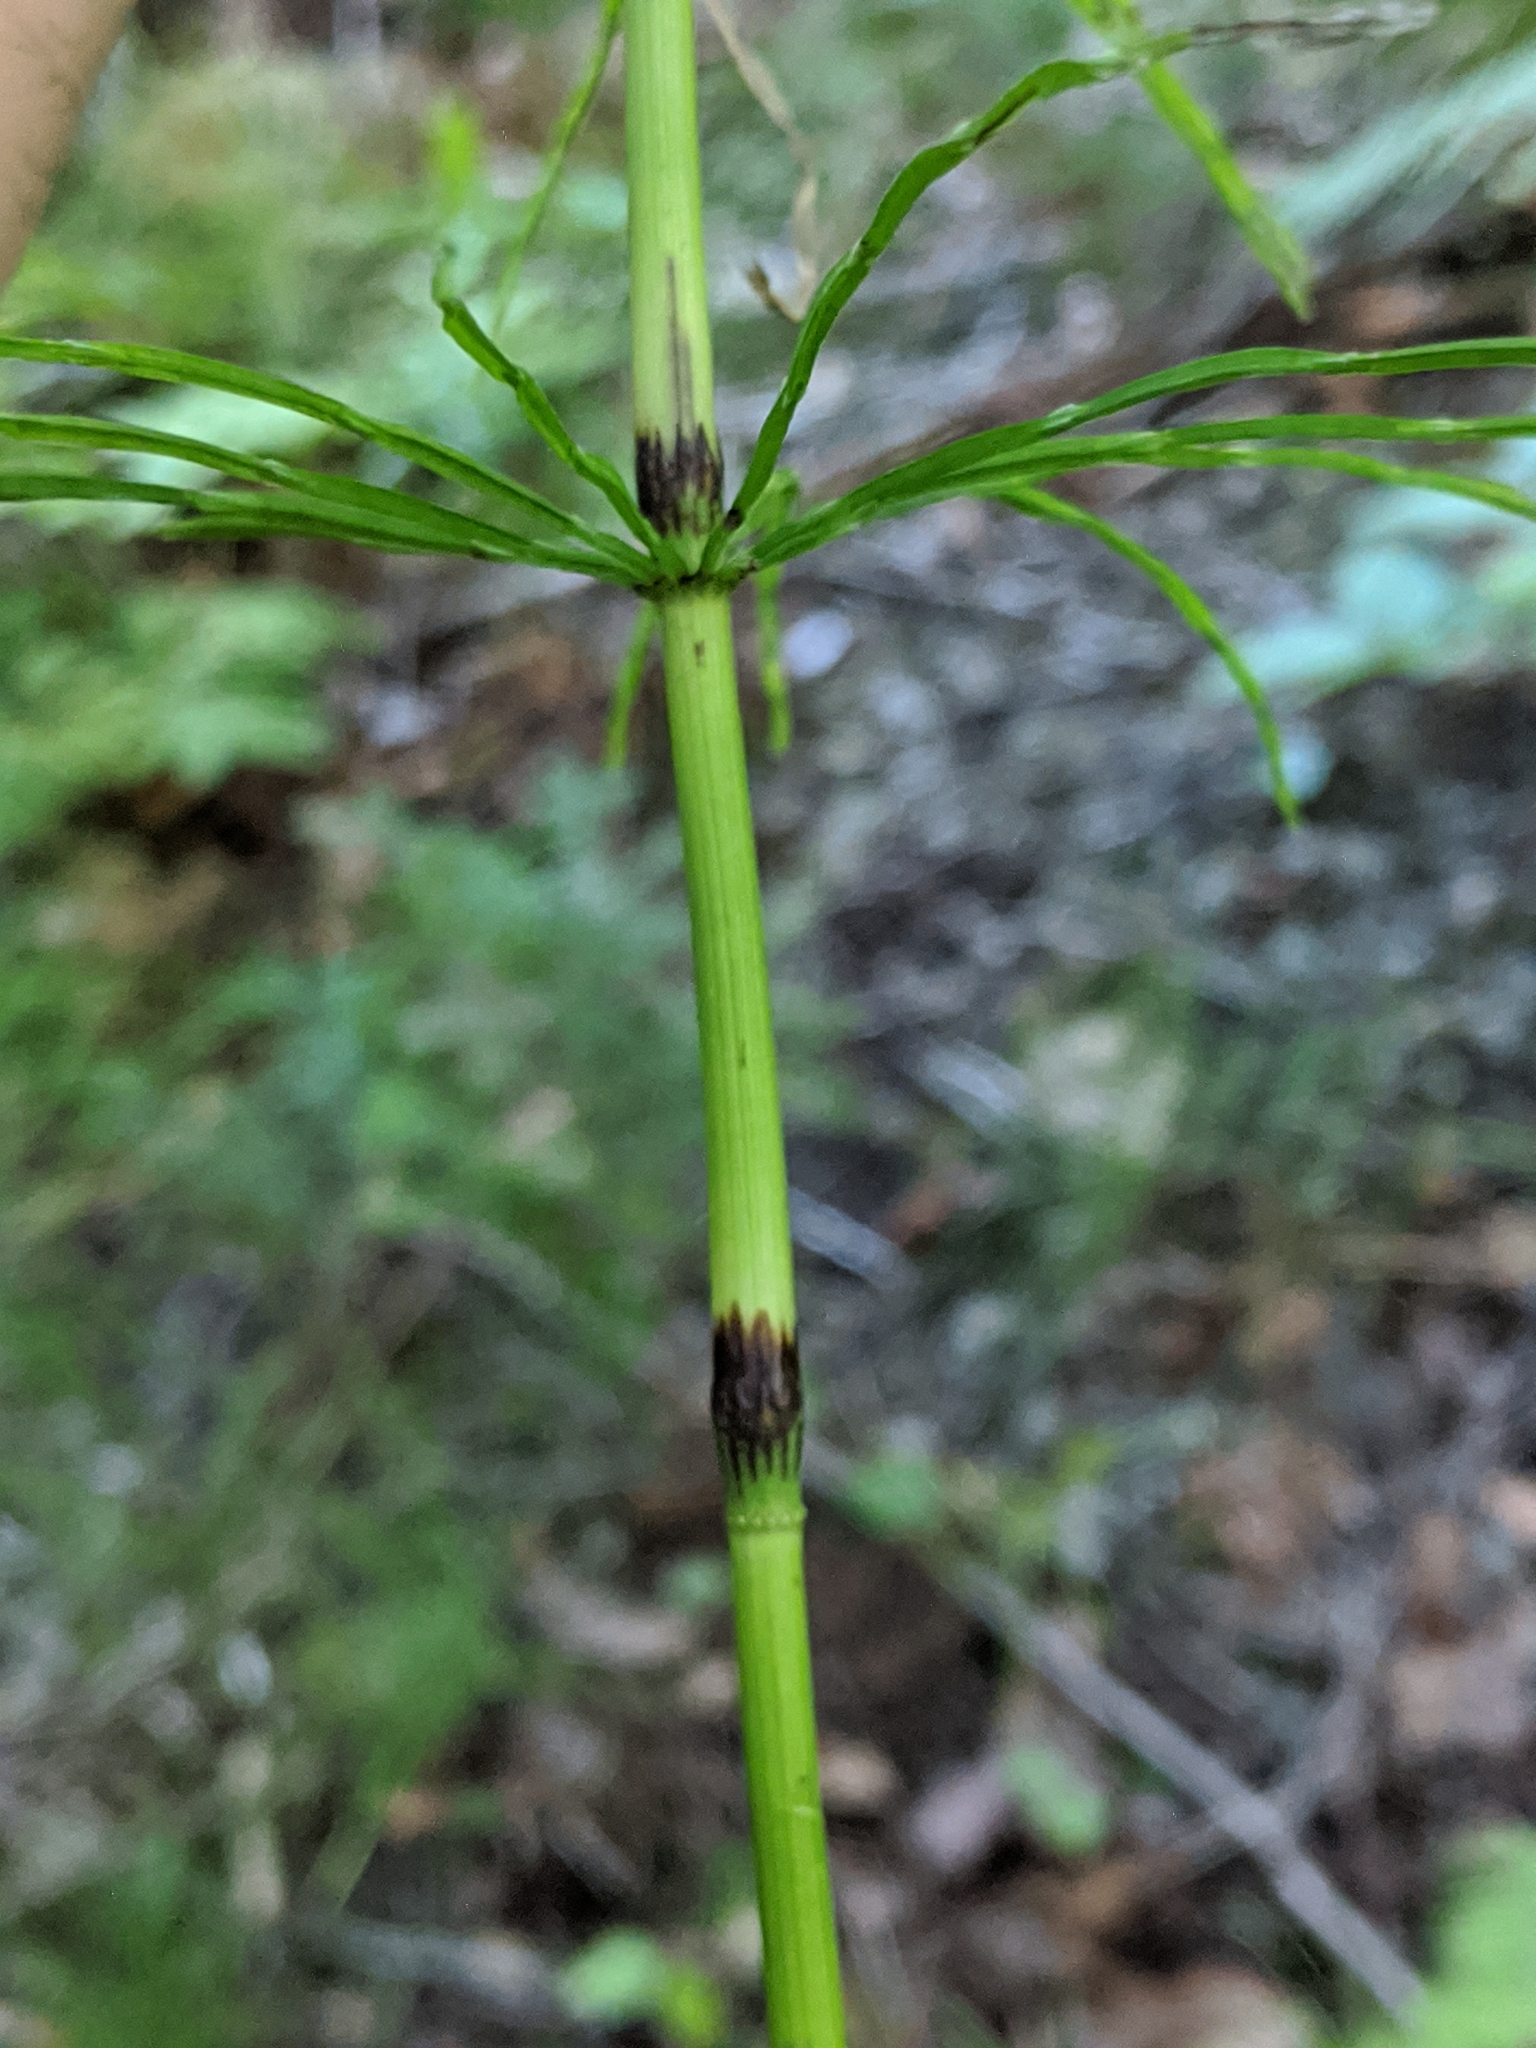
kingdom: Plantae
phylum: Tracheophyta
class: Polypodiopsida
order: Equisetales
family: Equisetaceae
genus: Equisetum
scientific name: Equisetum sylvaticum
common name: Wood horsetail
